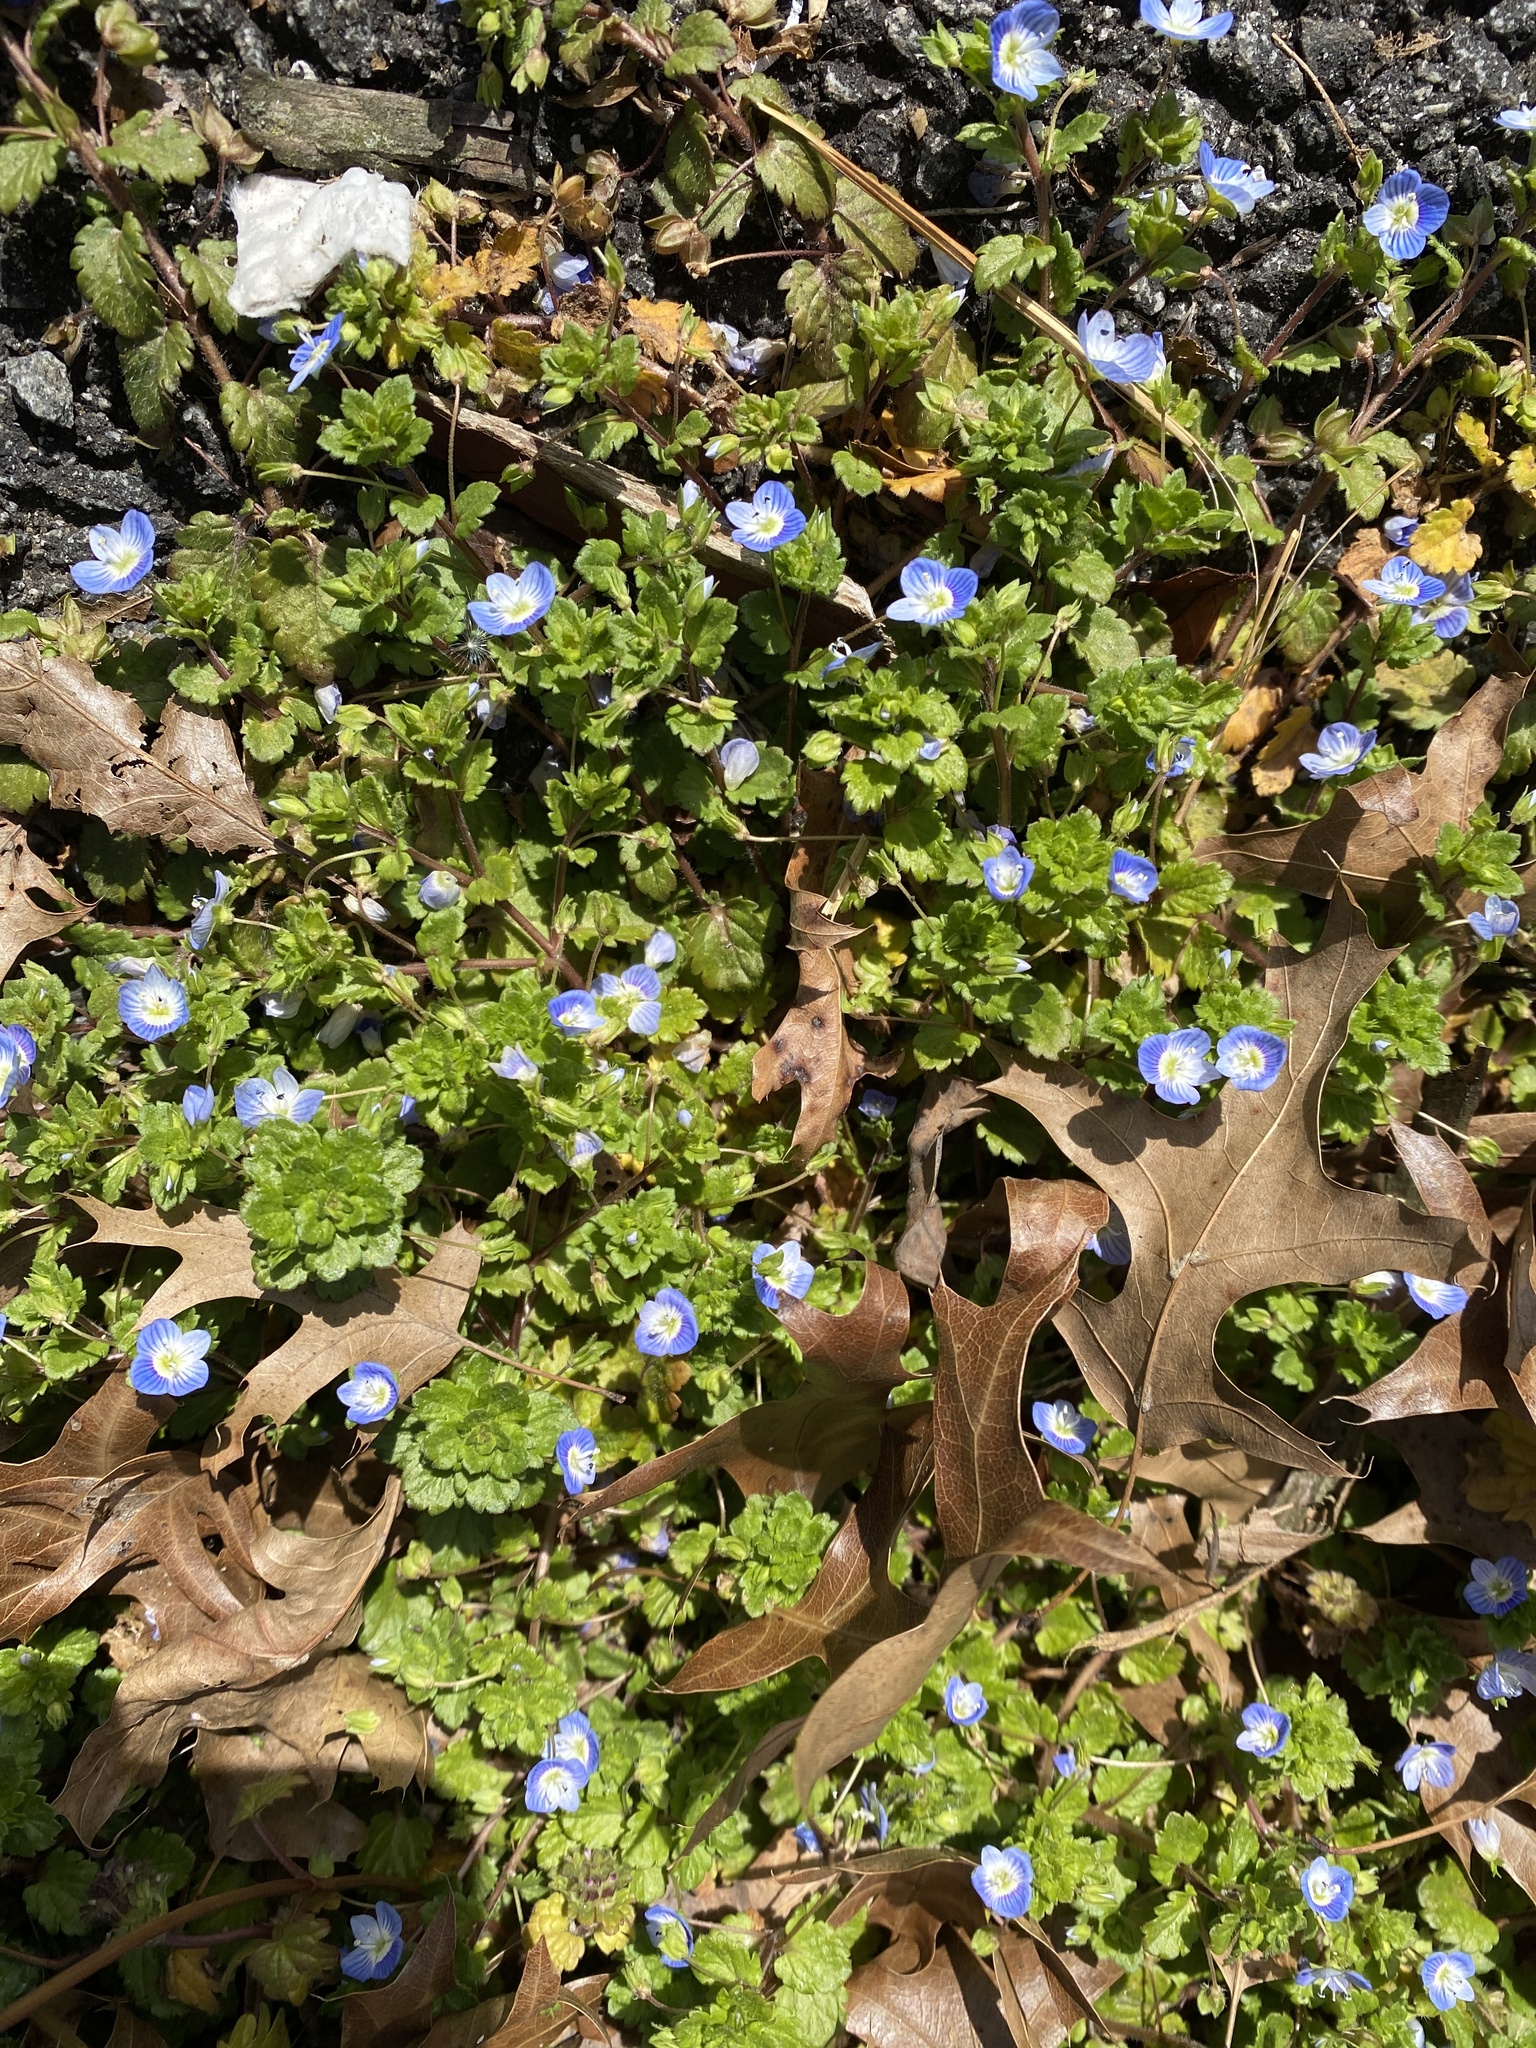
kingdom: Plantae
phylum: Tracheophyta
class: Magnoliopsida
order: Lamiales
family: Plantaginaceae
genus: Veronica
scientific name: Veronica persica
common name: Common field-speedwell
